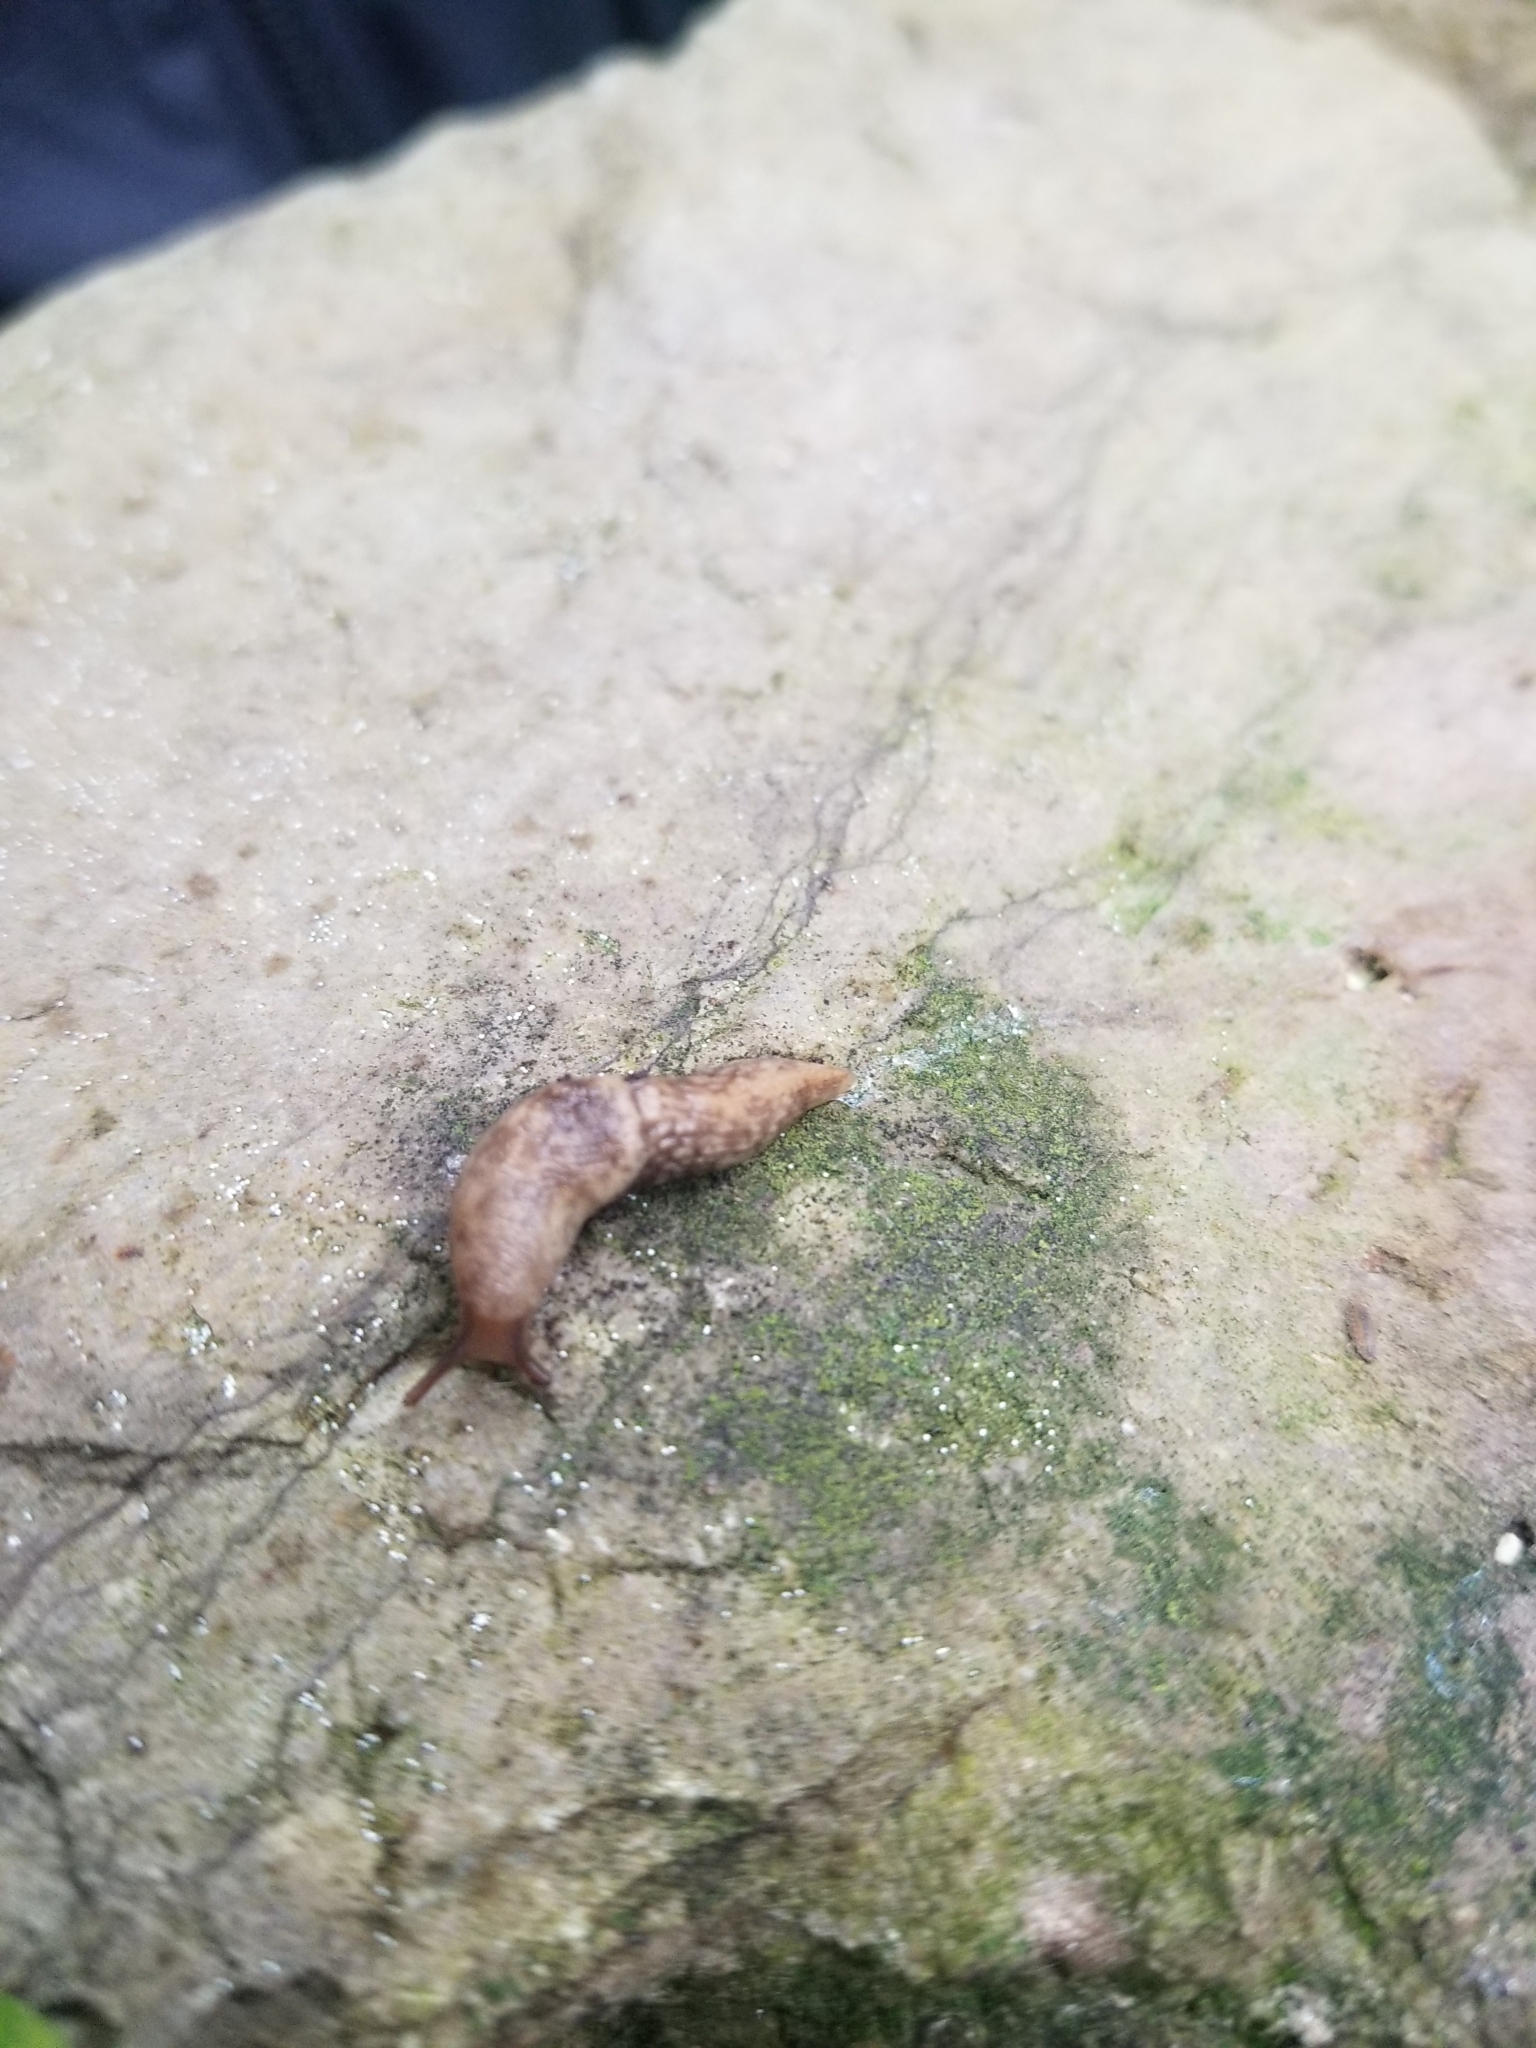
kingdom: Animalia
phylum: Mollusca
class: Gastropoda
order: Stylommatophora
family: Agriolimacidae
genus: Deroceras
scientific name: Deroceras reticulatum
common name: Gray field slug
